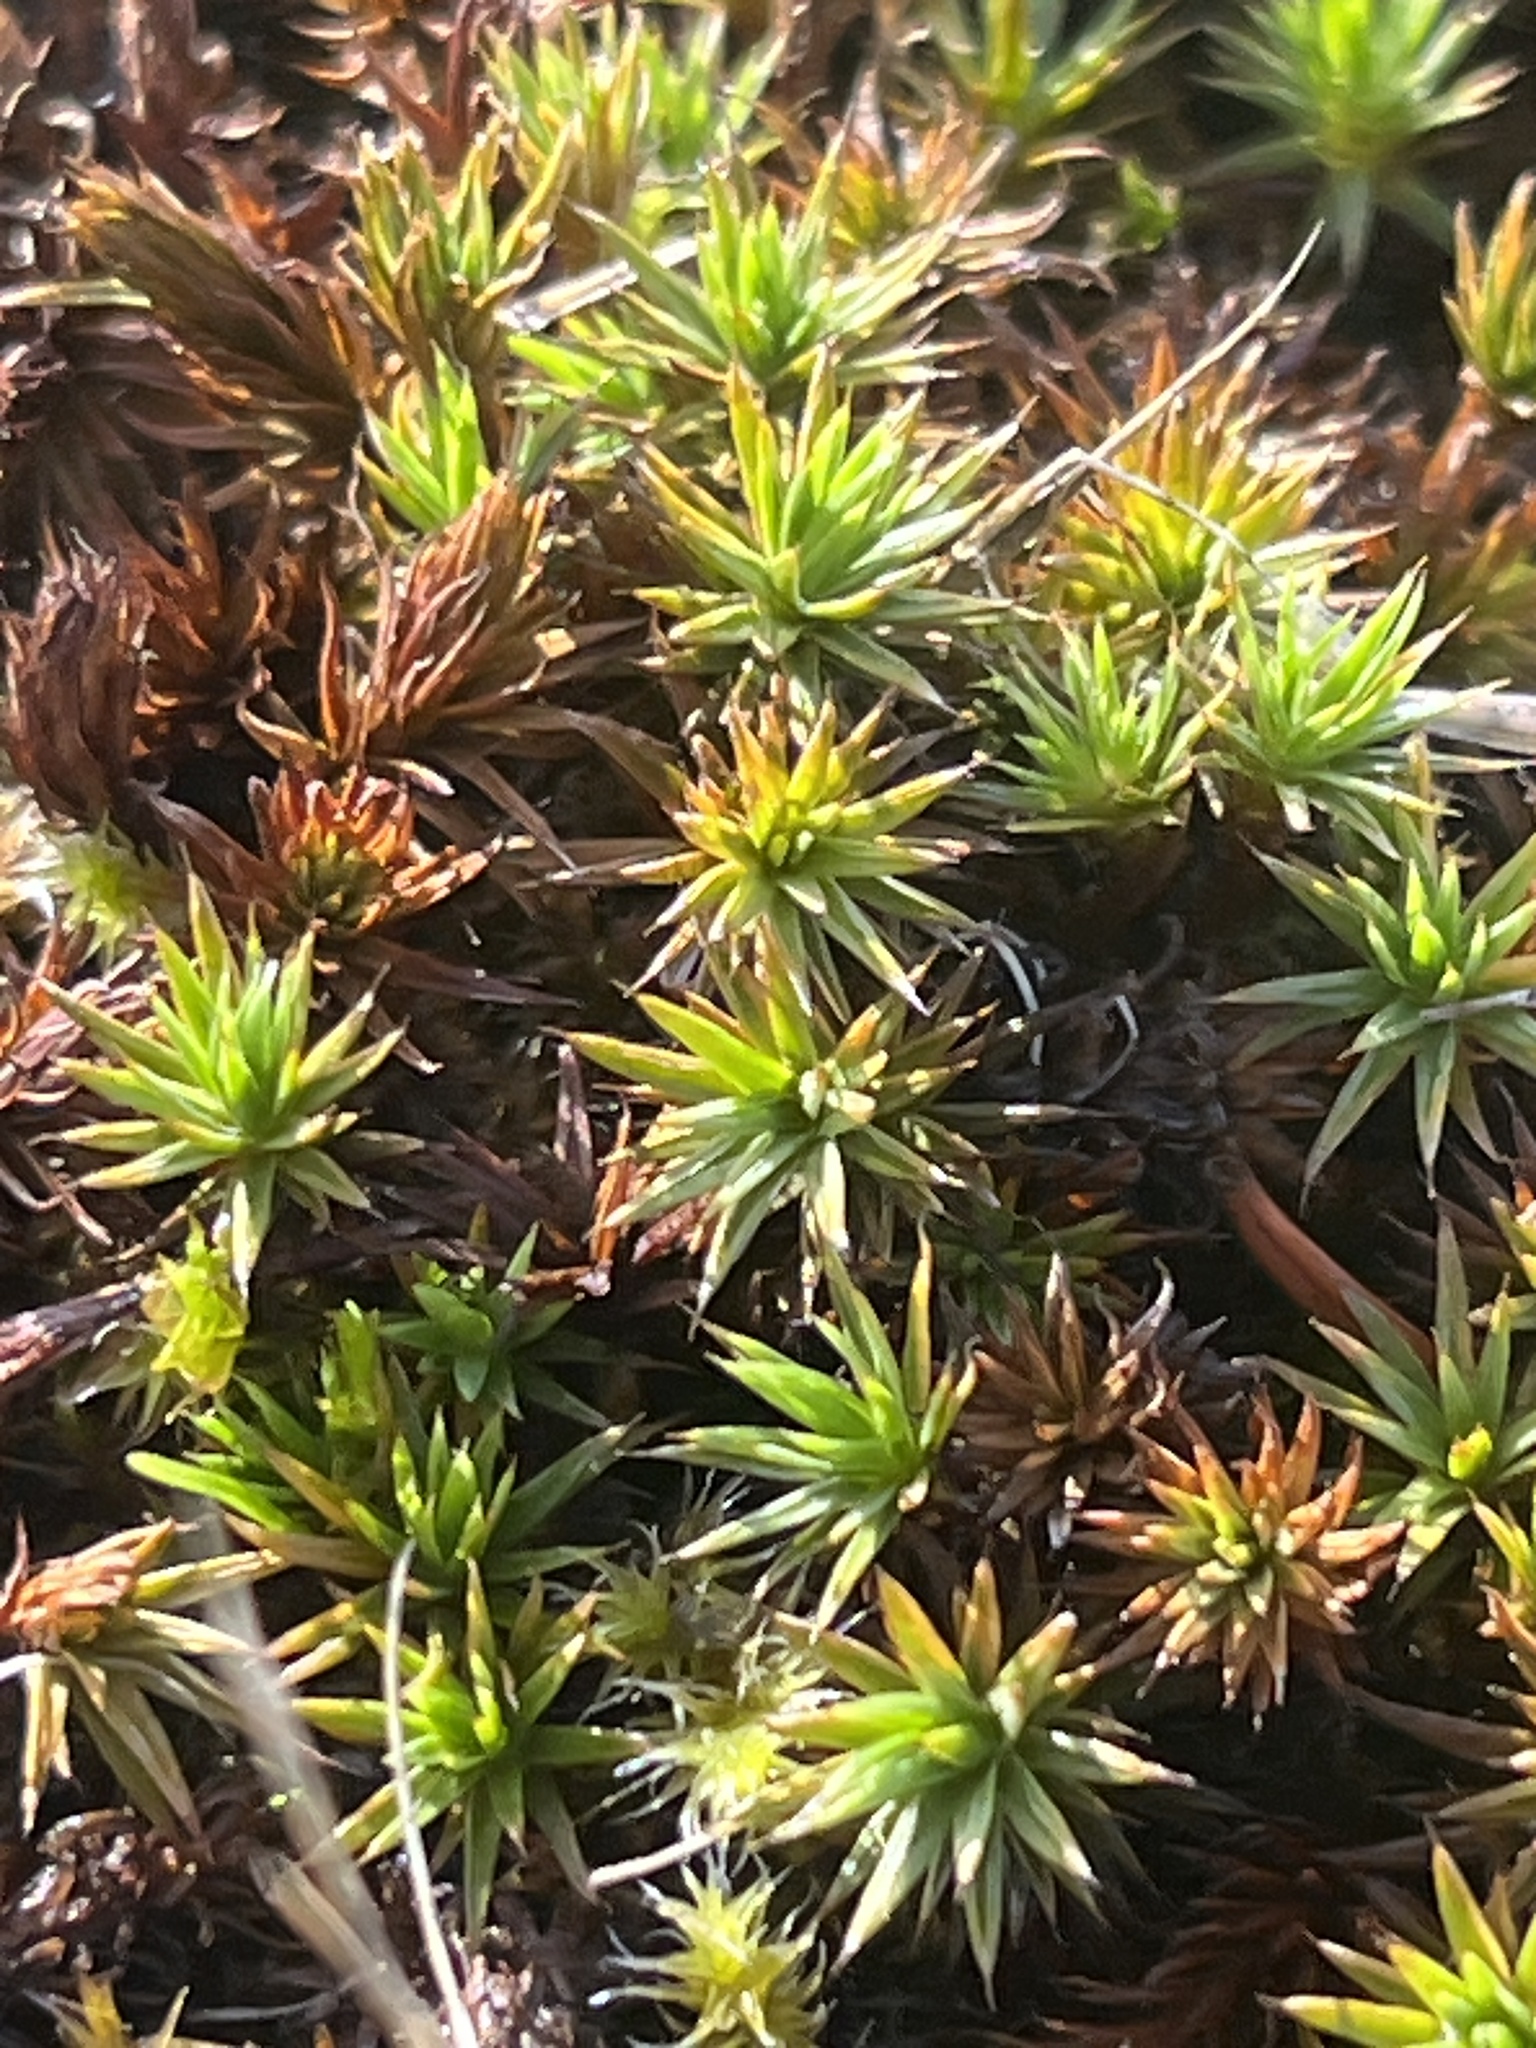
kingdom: Plantae
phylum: Bryophyta
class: Polytrichopsida
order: Polytrichales
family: Polytrichaceae
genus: Polytrichum
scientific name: Polytrichum juniperinum
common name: Juniper haircap moss
